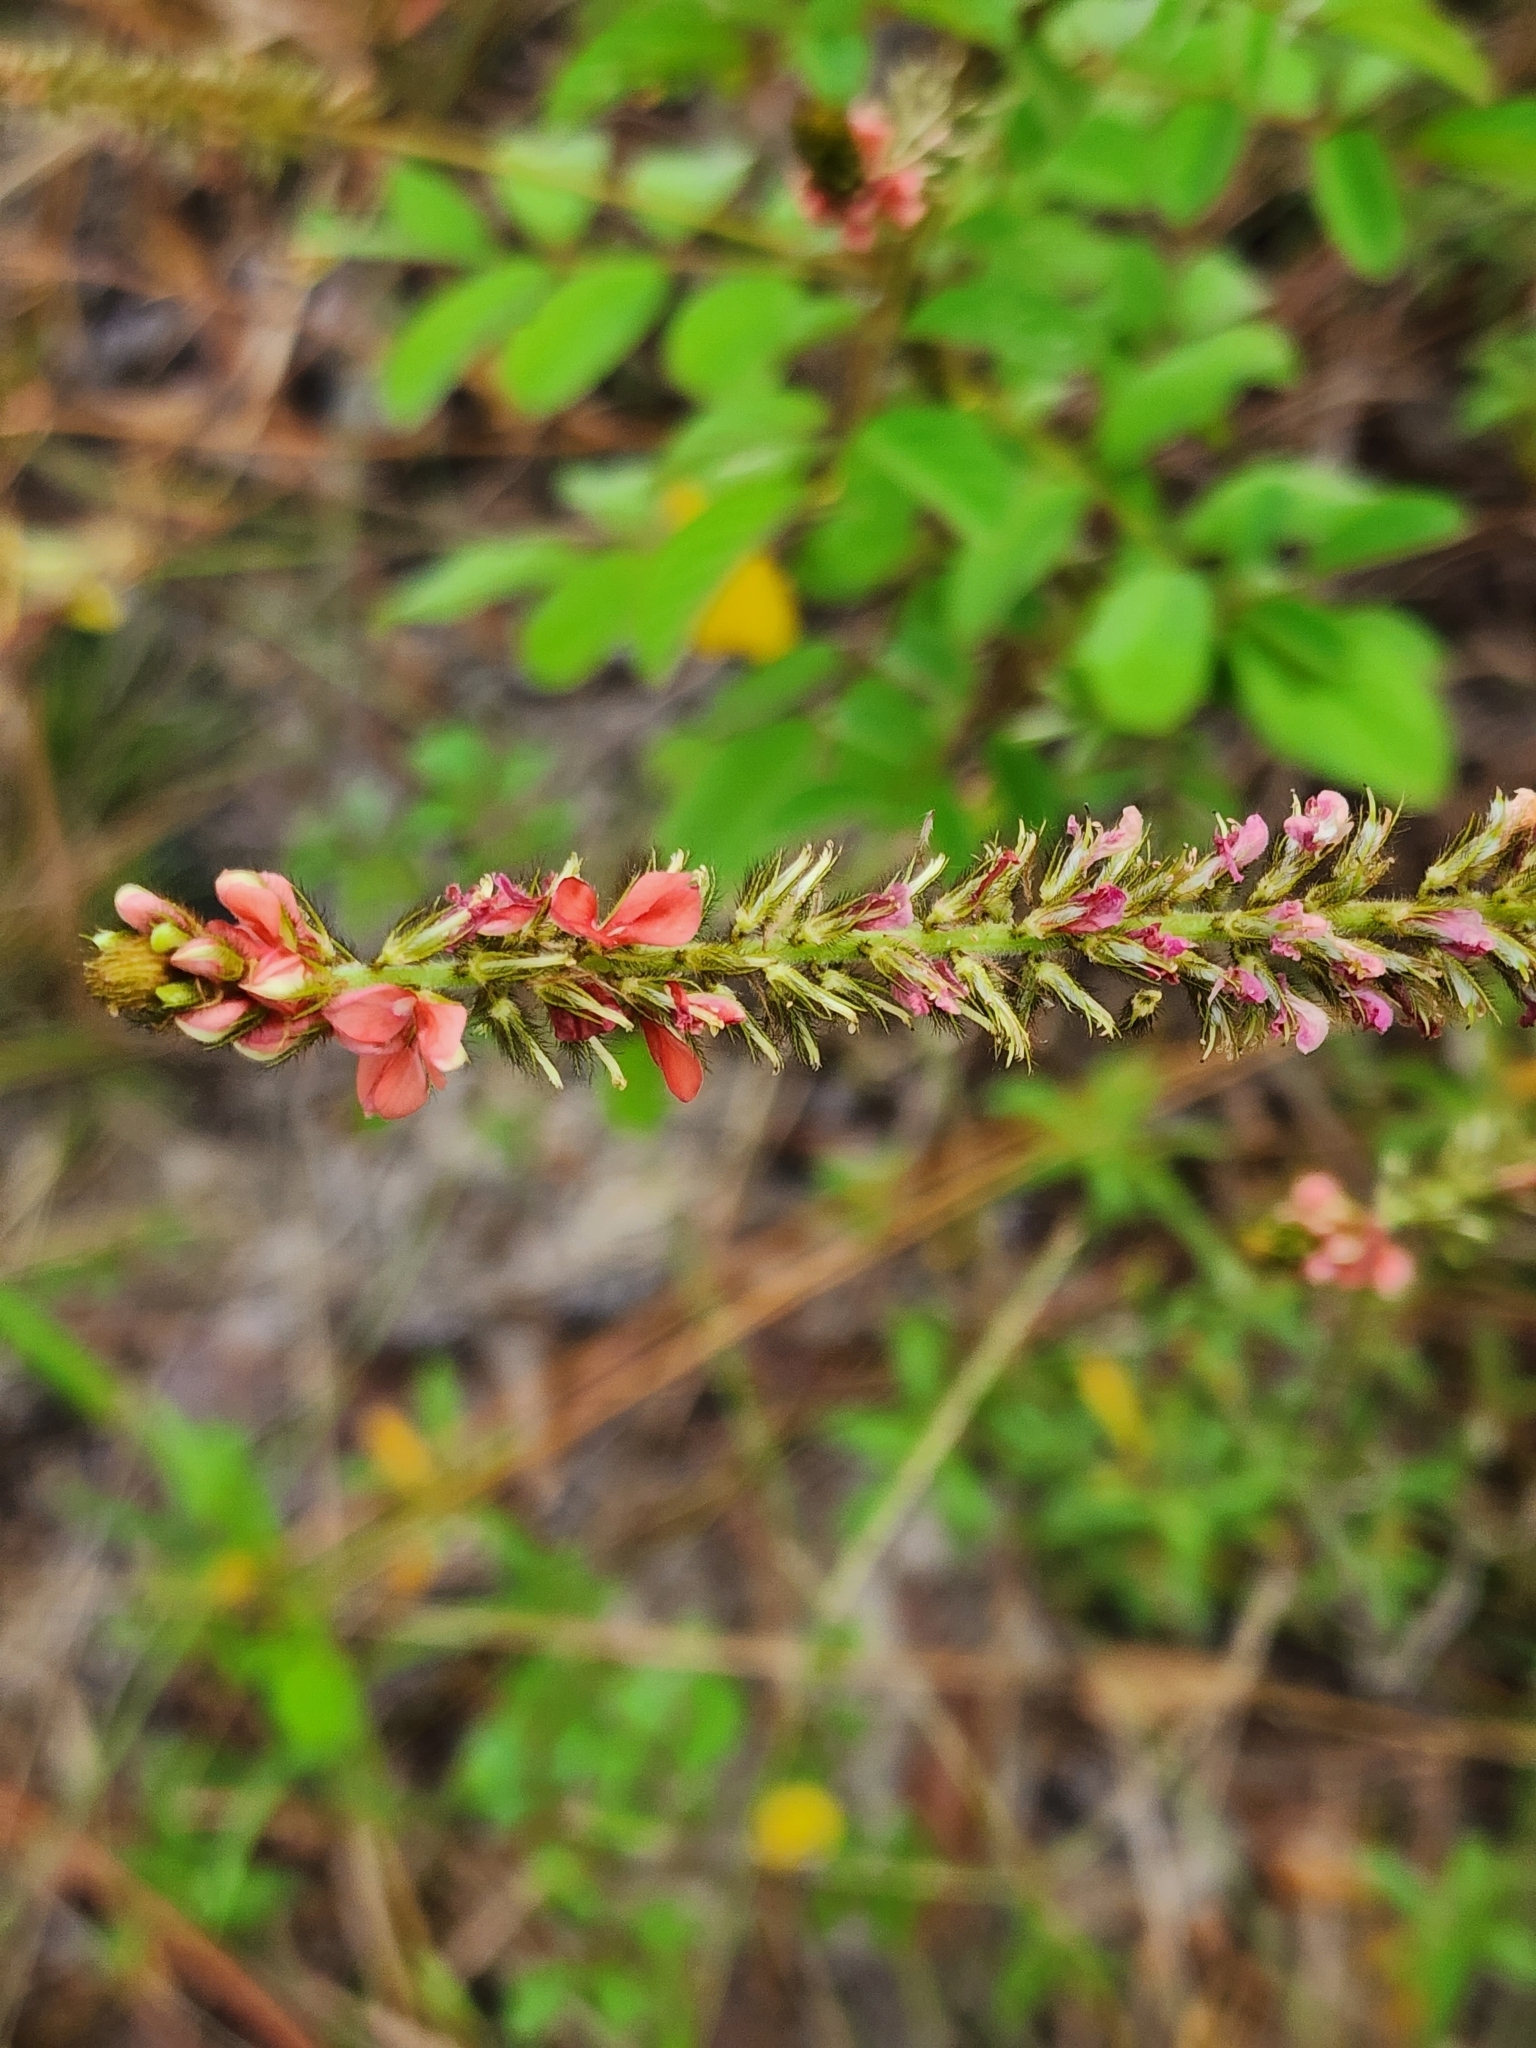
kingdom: Plantae
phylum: Tracheophyta
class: Magnoliopsida
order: Fabales
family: Fabaceae
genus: Indigofera
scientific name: Indigofera hirsuta
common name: Hairy indigo
